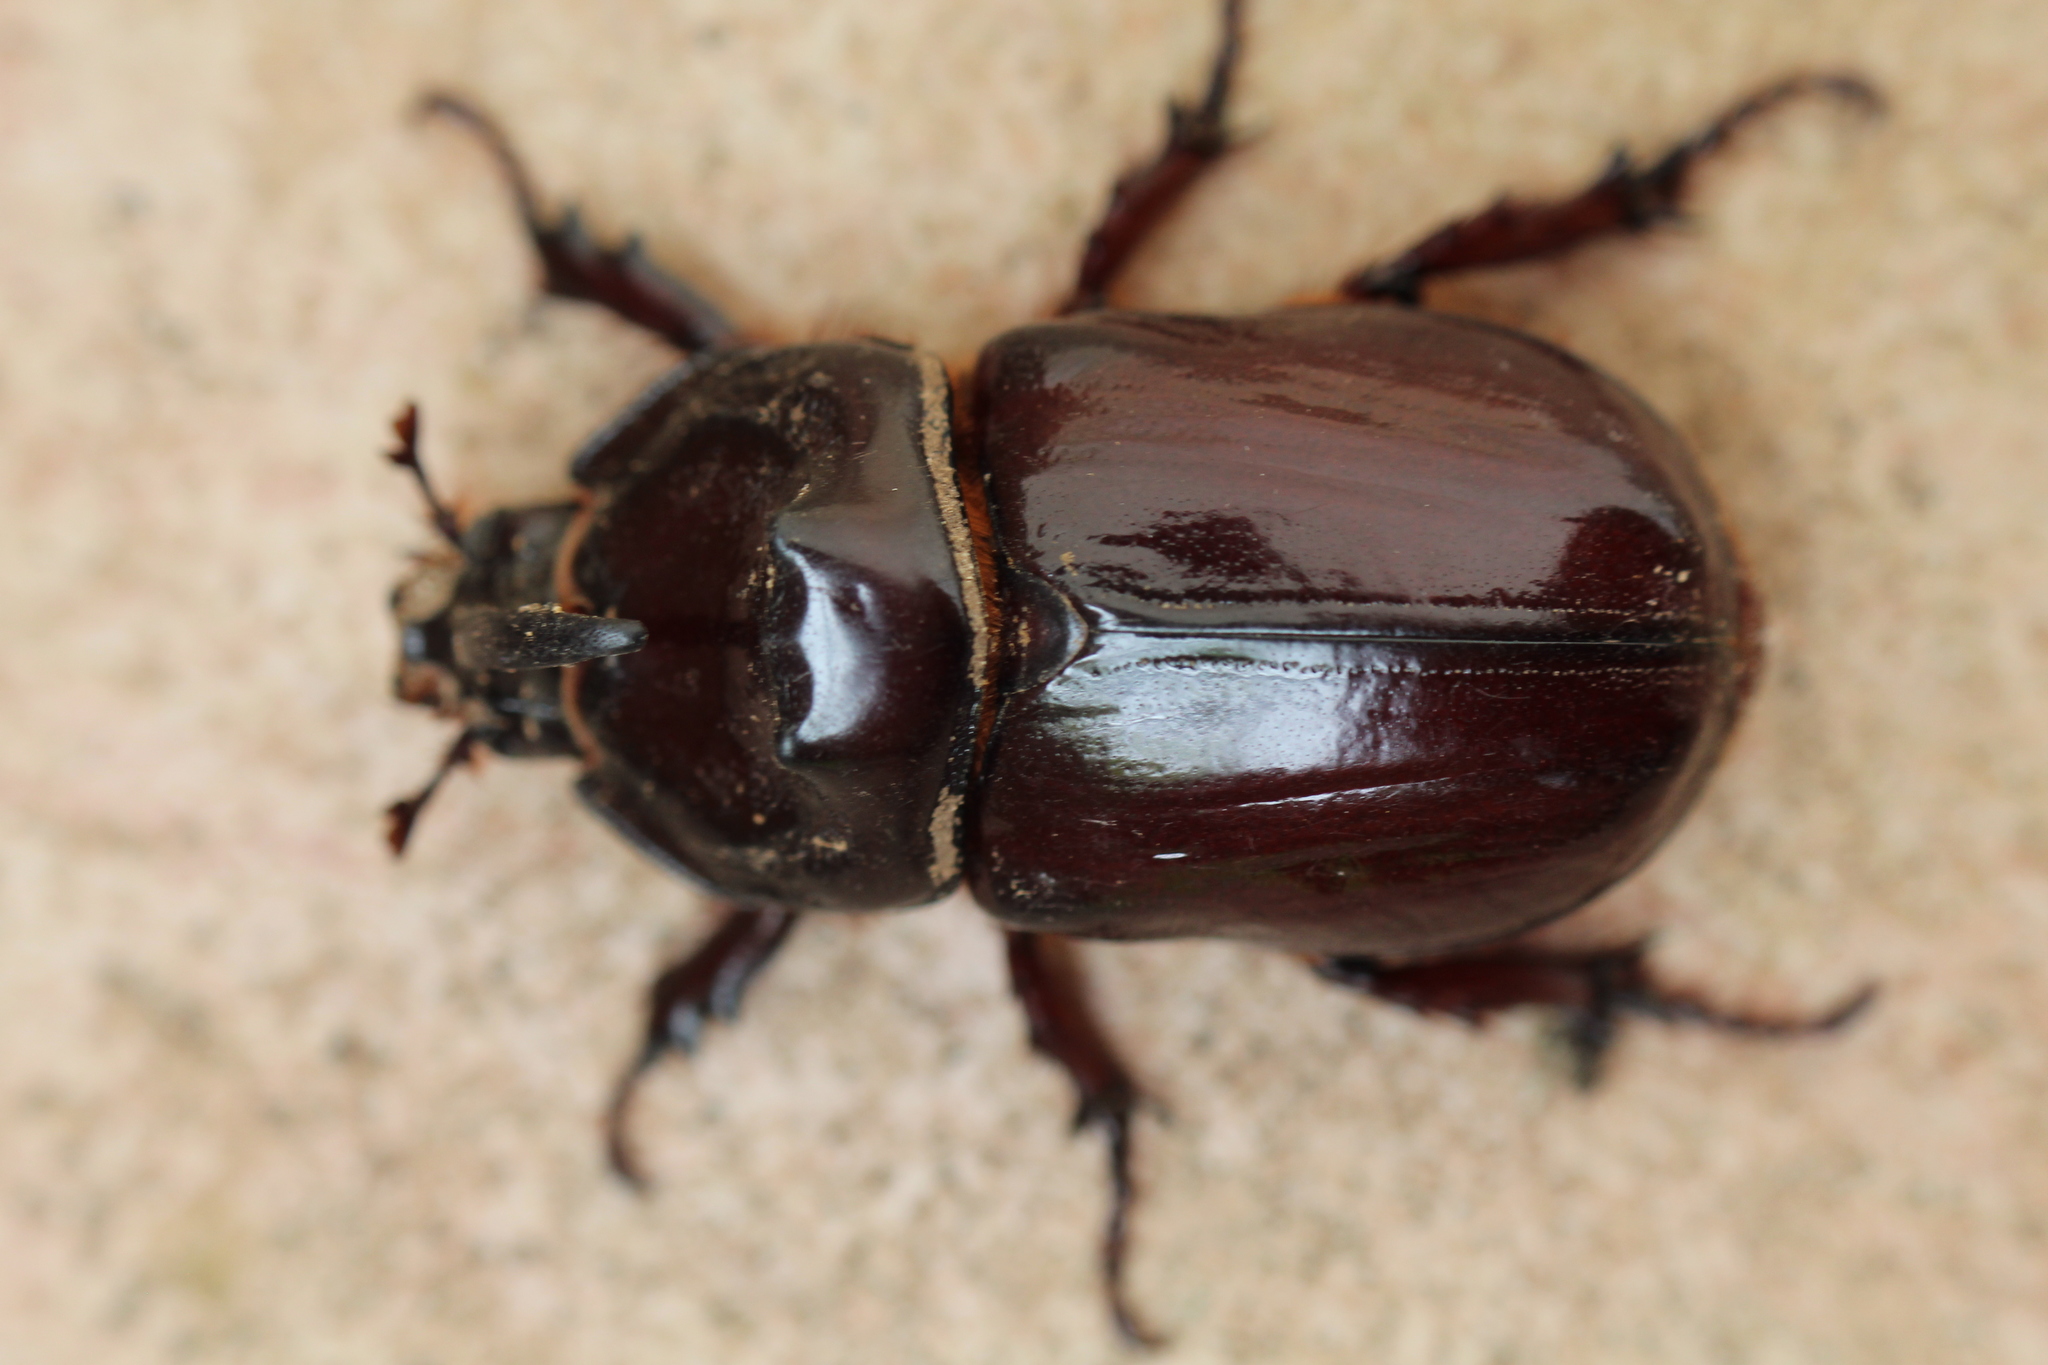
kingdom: Animalia
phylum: Arthropoda
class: Insecta
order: Coleoptera
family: Scarabaeidae
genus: Oryctes
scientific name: Oryctes nasicornis
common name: European rhinoceros beetle
